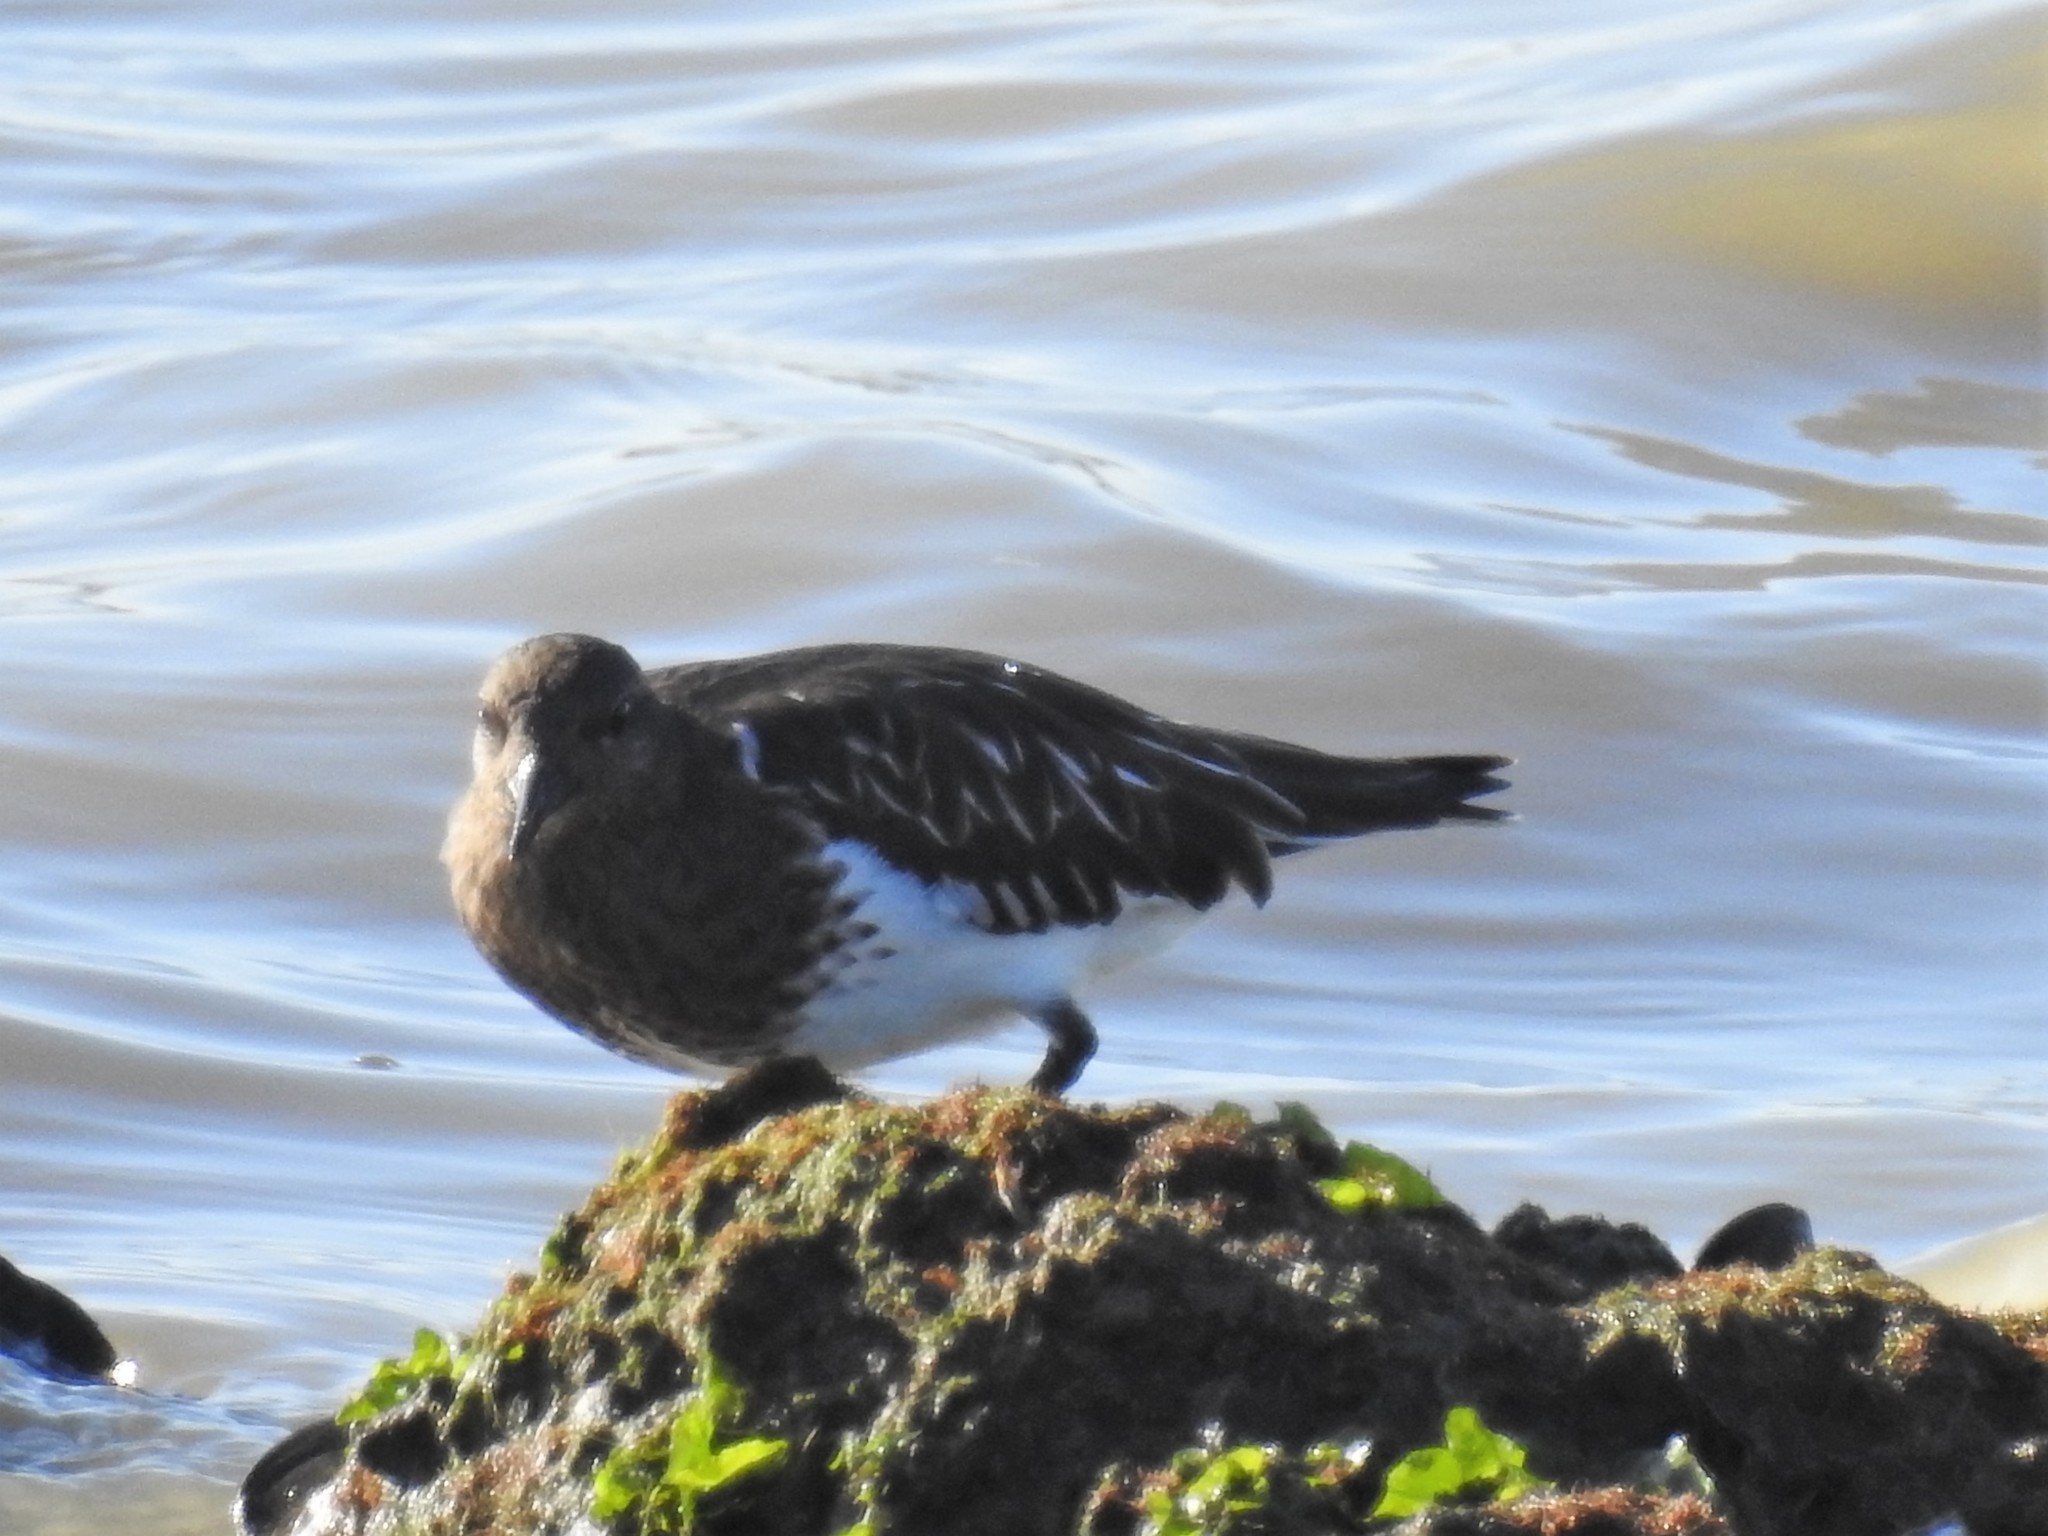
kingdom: Animalia
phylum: Chordata
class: Aves
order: Charadriiformes
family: Scolopacidae
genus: Arenaria
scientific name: Arenaria melanocephala
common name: Black turnstone
